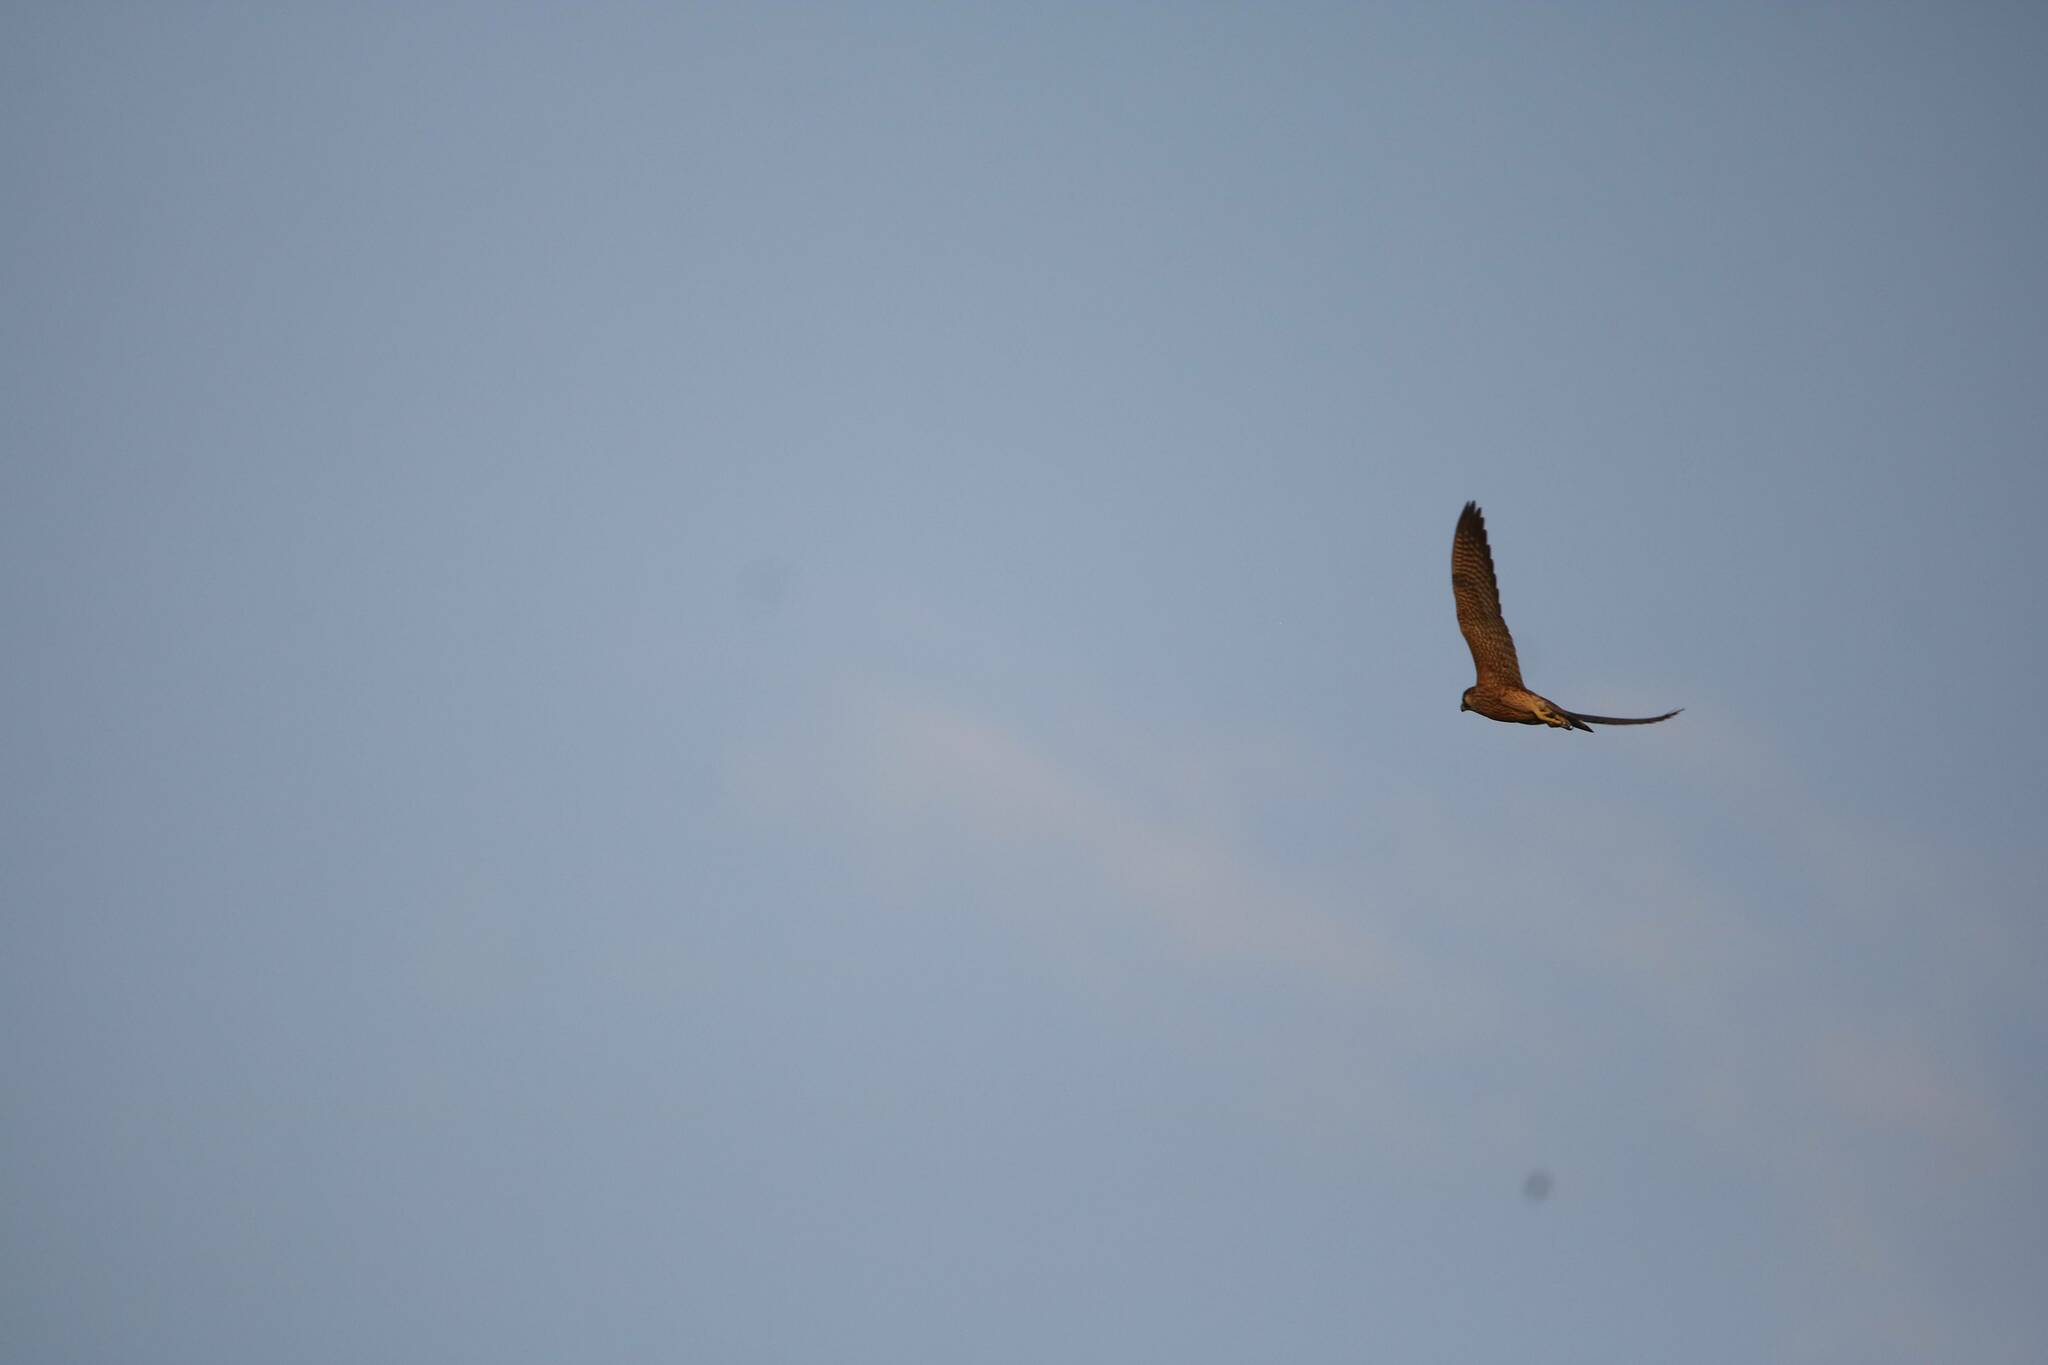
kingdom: Animalia
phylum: Chordata
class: Aves
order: Falconiformes
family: Falconidae
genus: Falco
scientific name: Falco peregrinus
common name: Peregrine falcon
